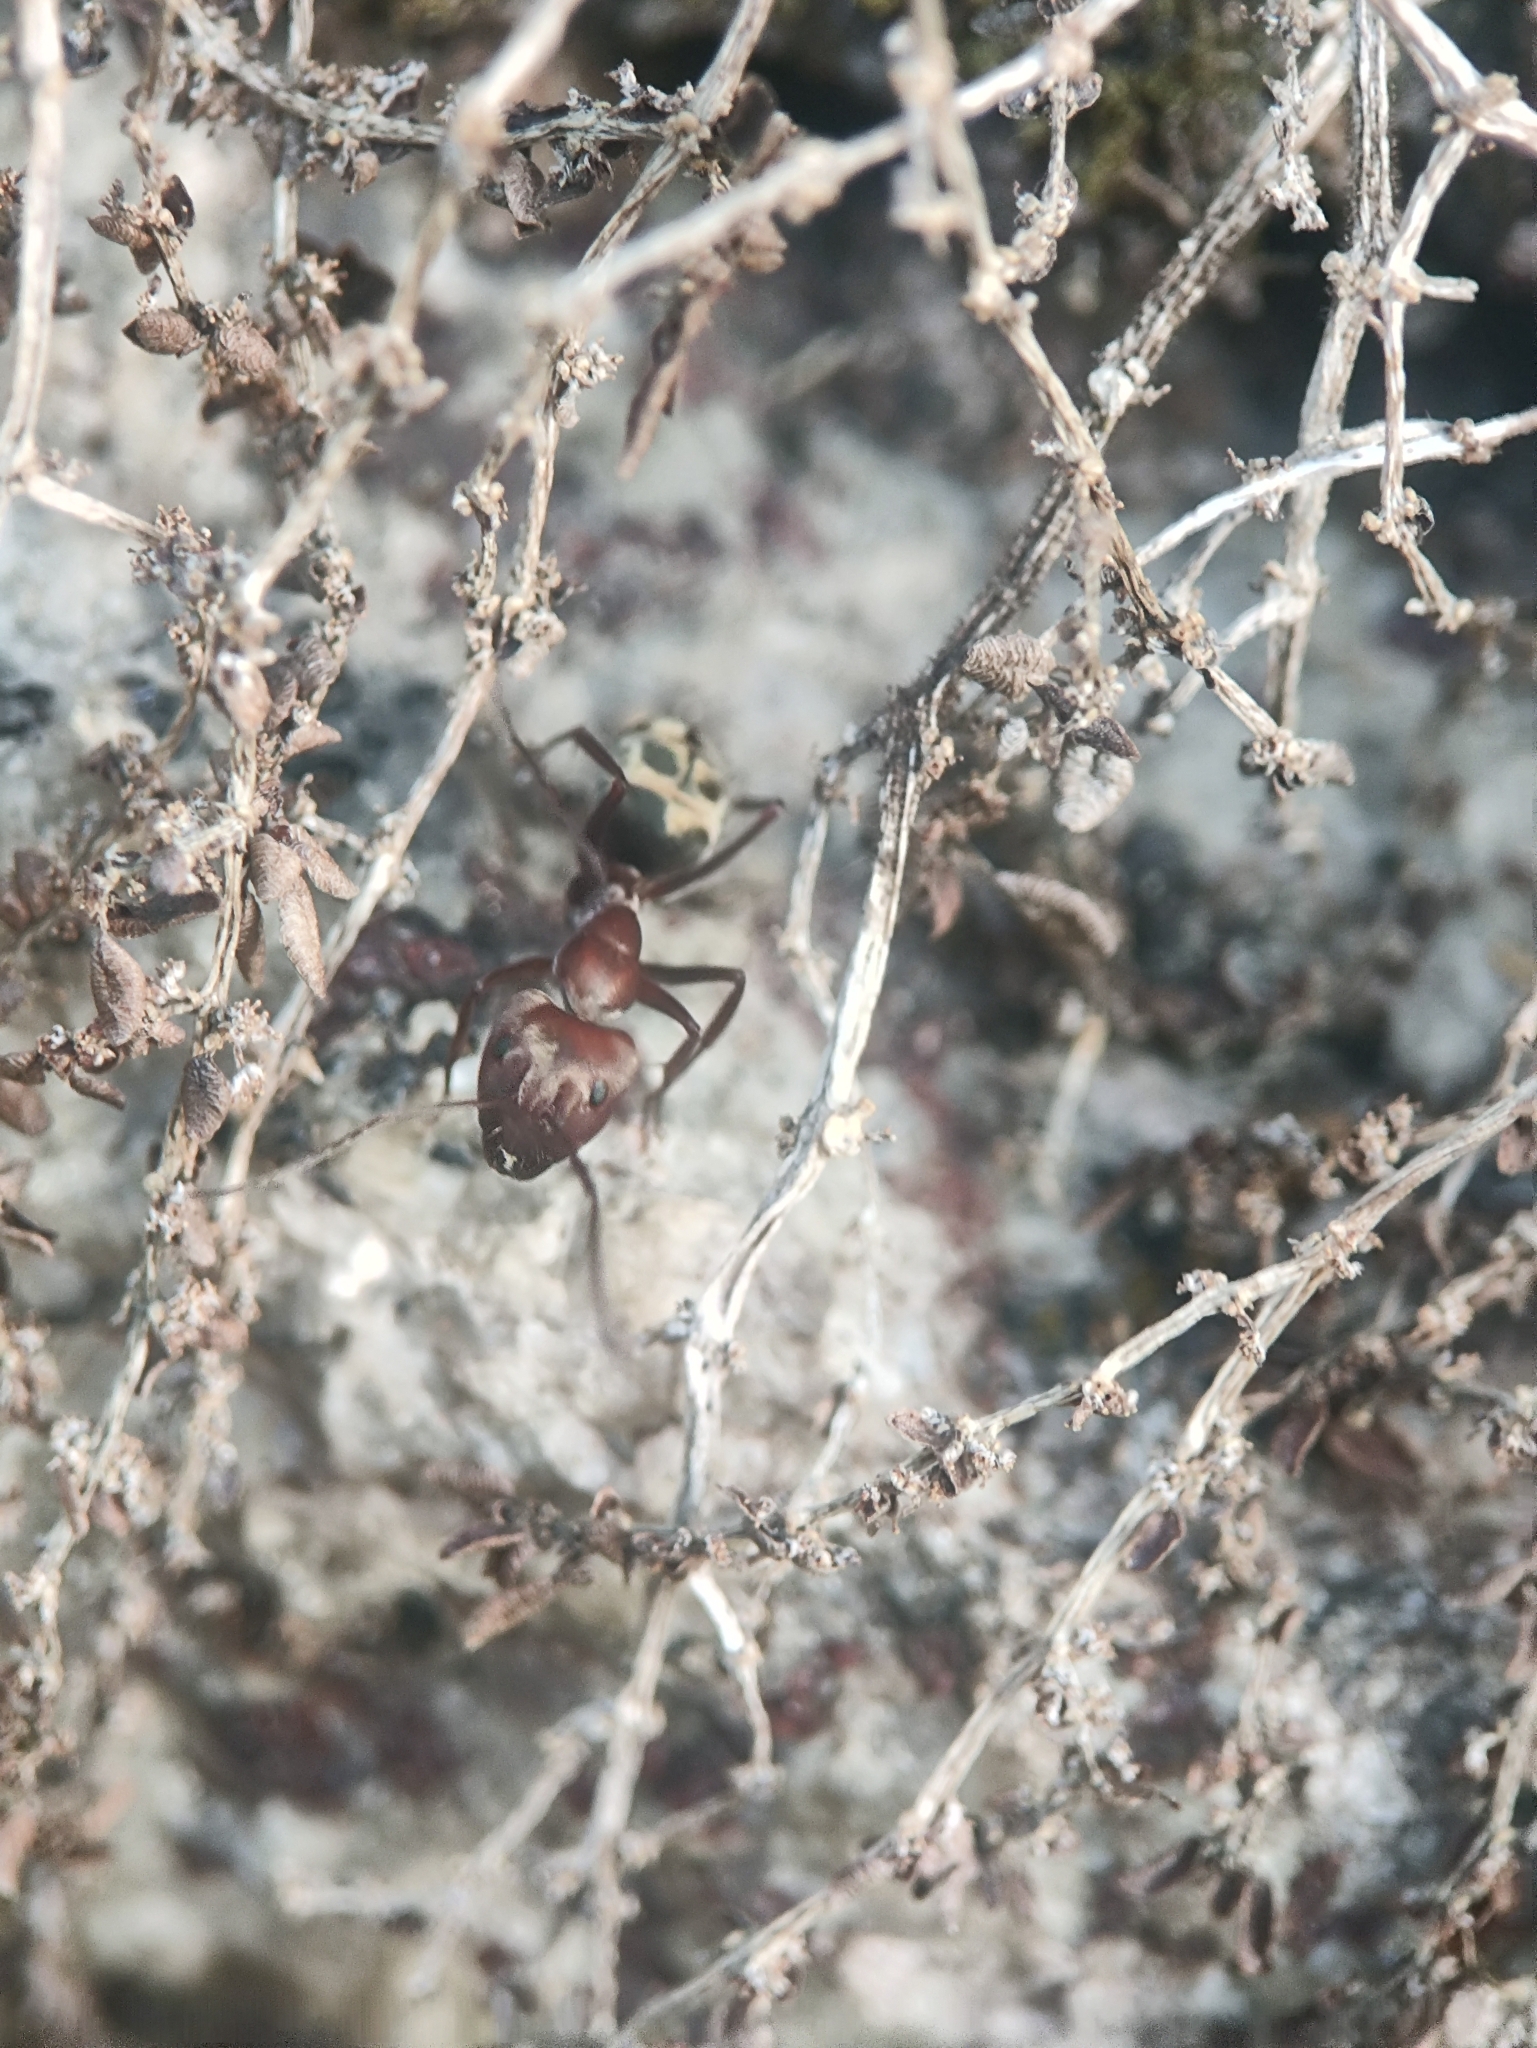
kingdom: Animalia
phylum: Arthropoda
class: Insecta
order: Hymenoptera
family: Formicidae
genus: Camponotus
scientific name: Camponotus rufoglaucus
